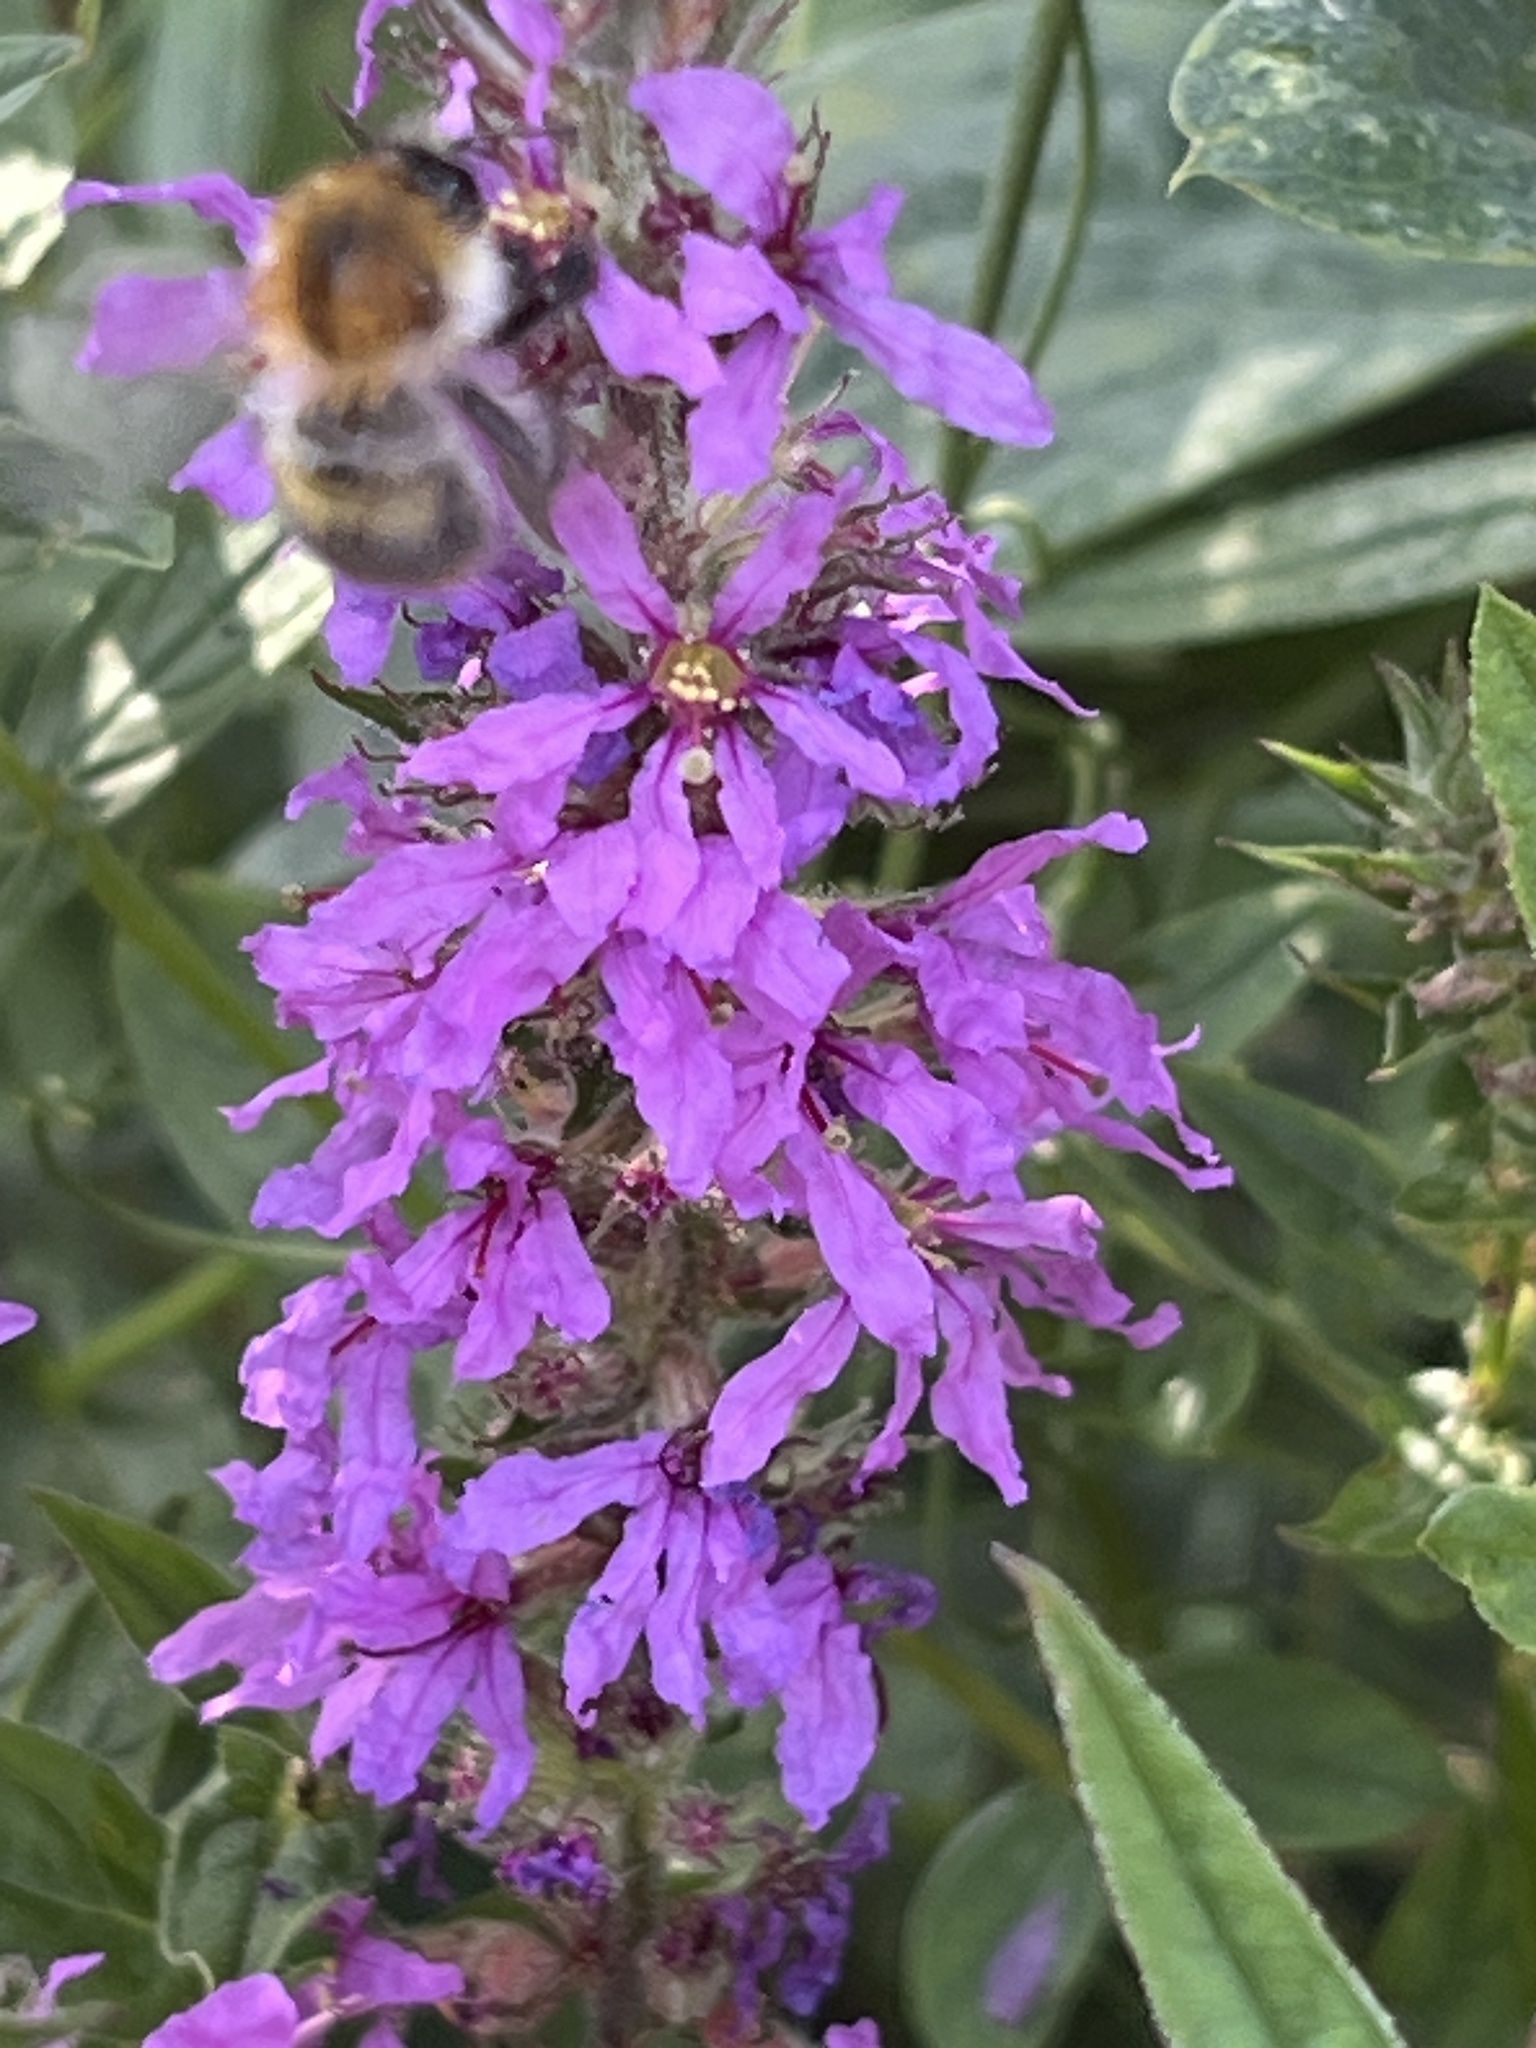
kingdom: Animalia
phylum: Arthropoda
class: Insecta
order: Hymenoptera
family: Apidae
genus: Bombus
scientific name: Bombus pascuorum
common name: Common carder bee
